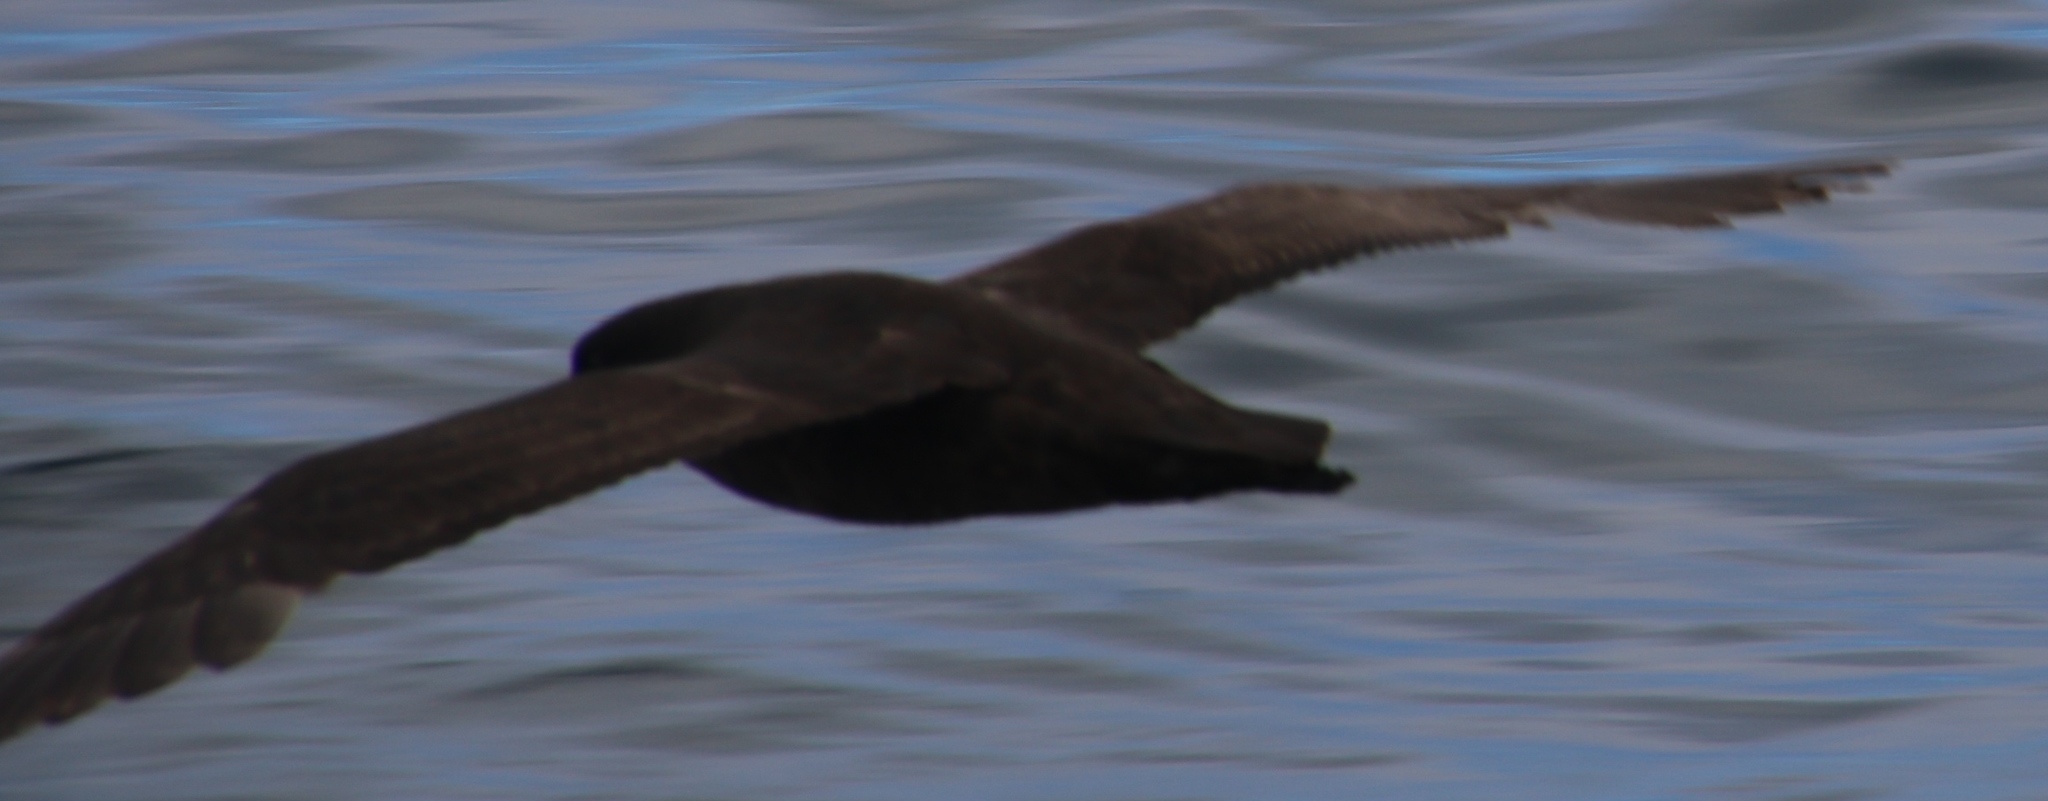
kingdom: Animalia
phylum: Chordata
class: Aves
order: Procellariiformes
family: Procellariidae
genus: Procellaria
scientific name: Procellaria aequinoctialis
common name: White-chinned petrel
